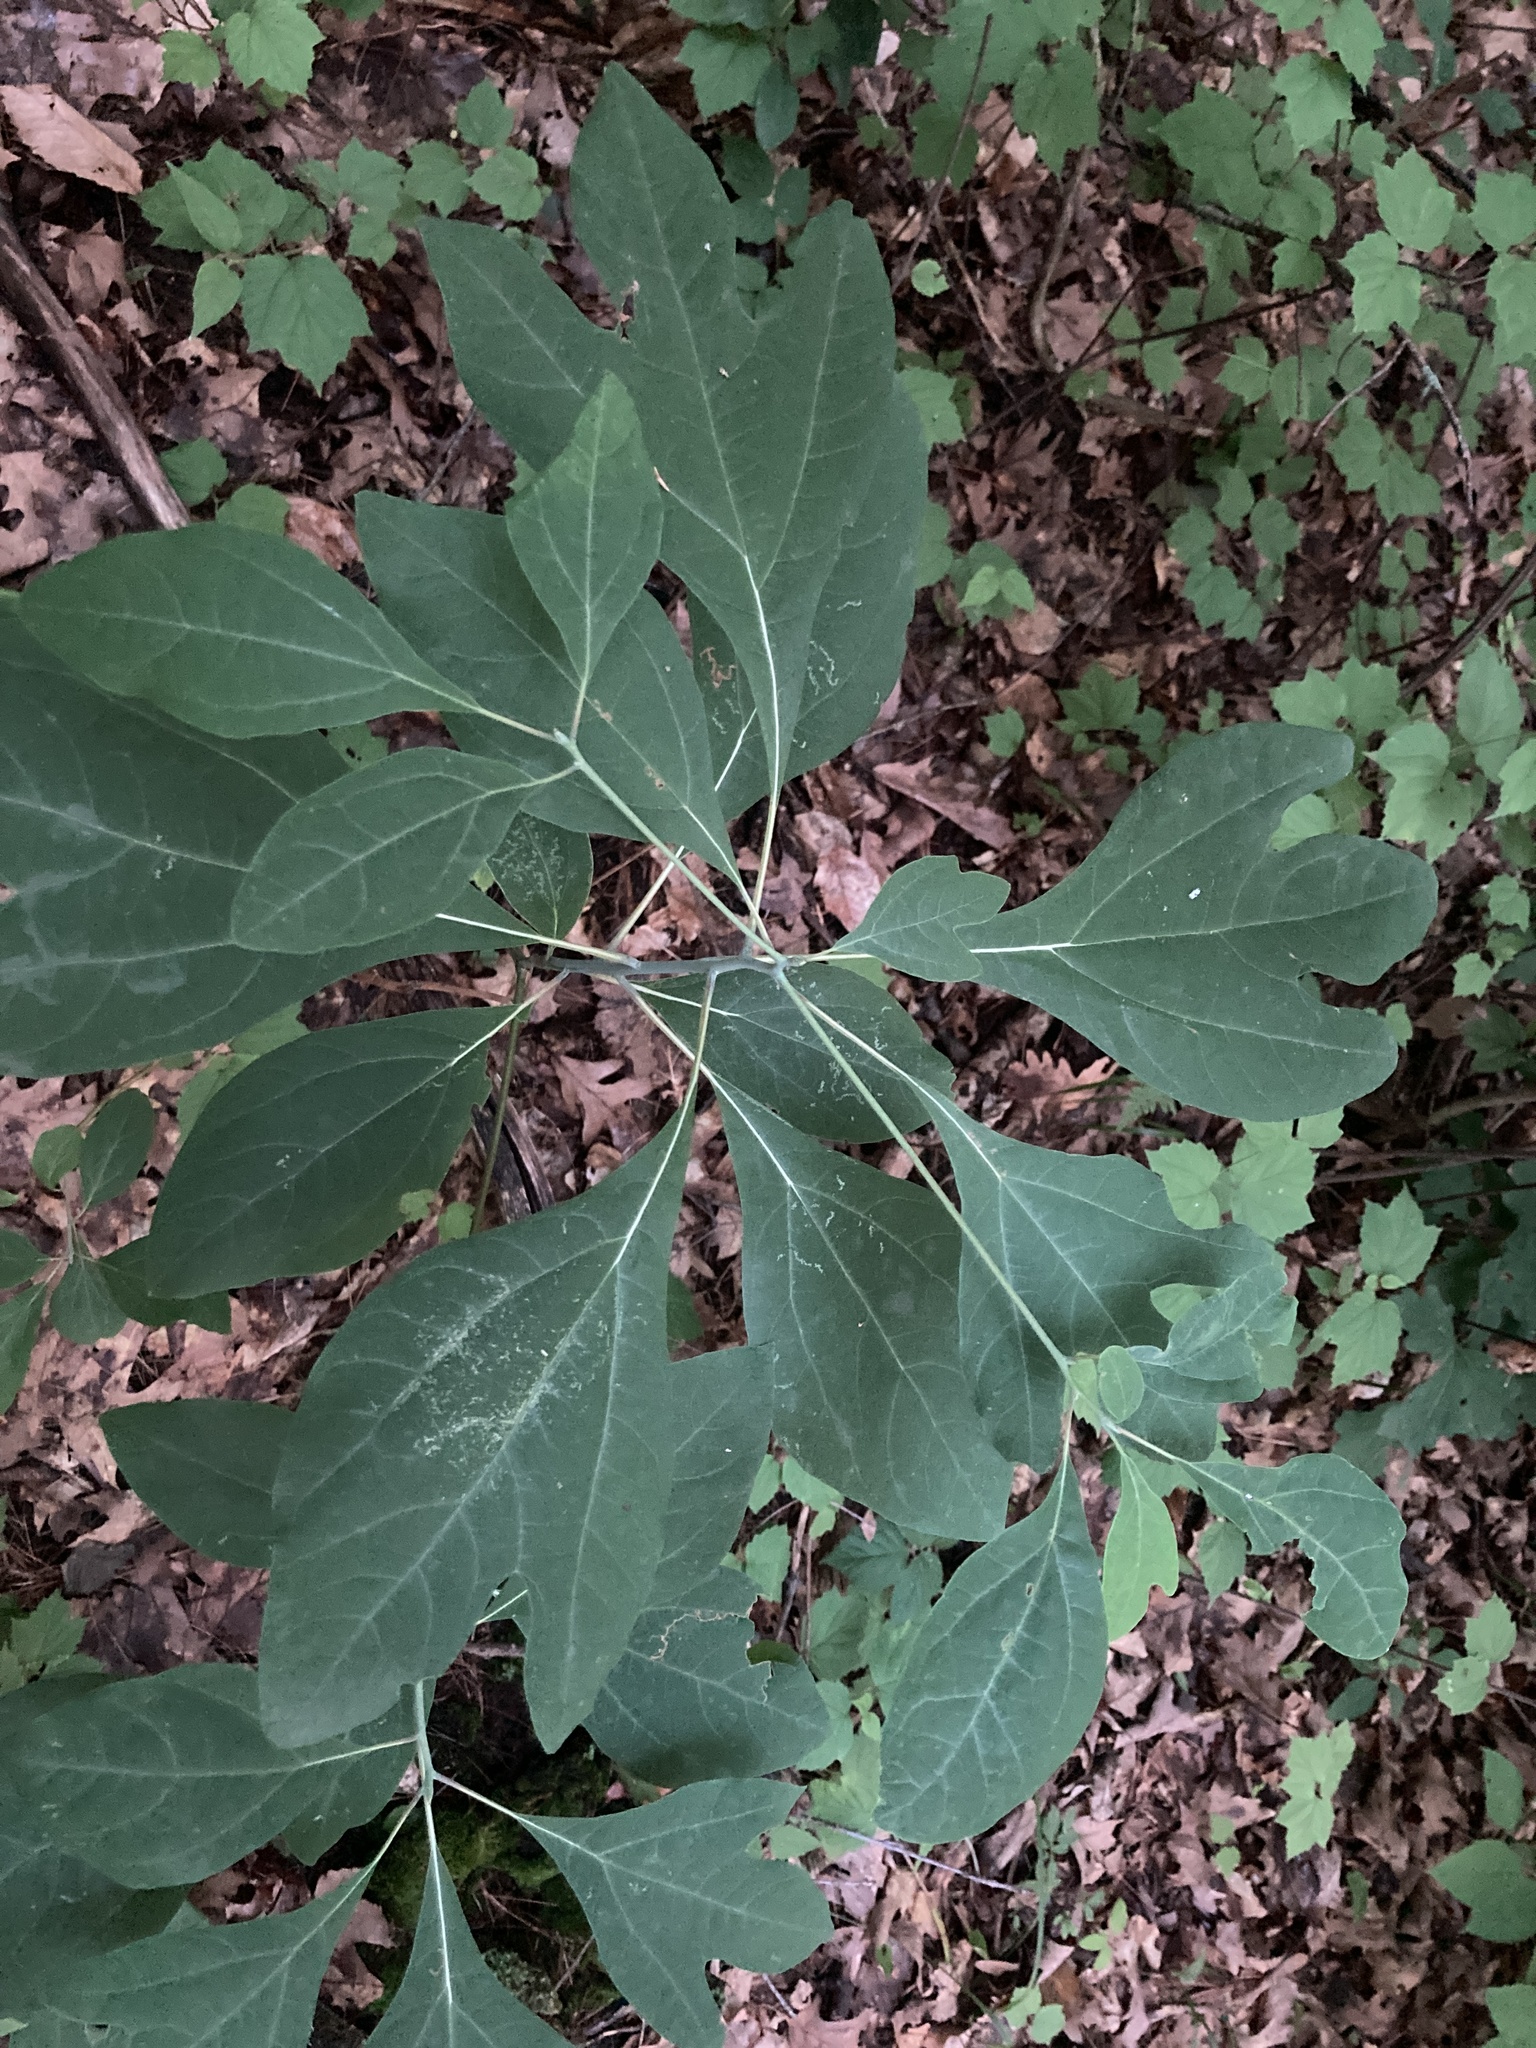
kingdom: Plantae
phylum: Tracheophyta
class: Magnoliopsida
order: Laurales
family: Lauraceae
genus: Sassafras
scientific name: Sassafras albidum
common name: Sassafras
